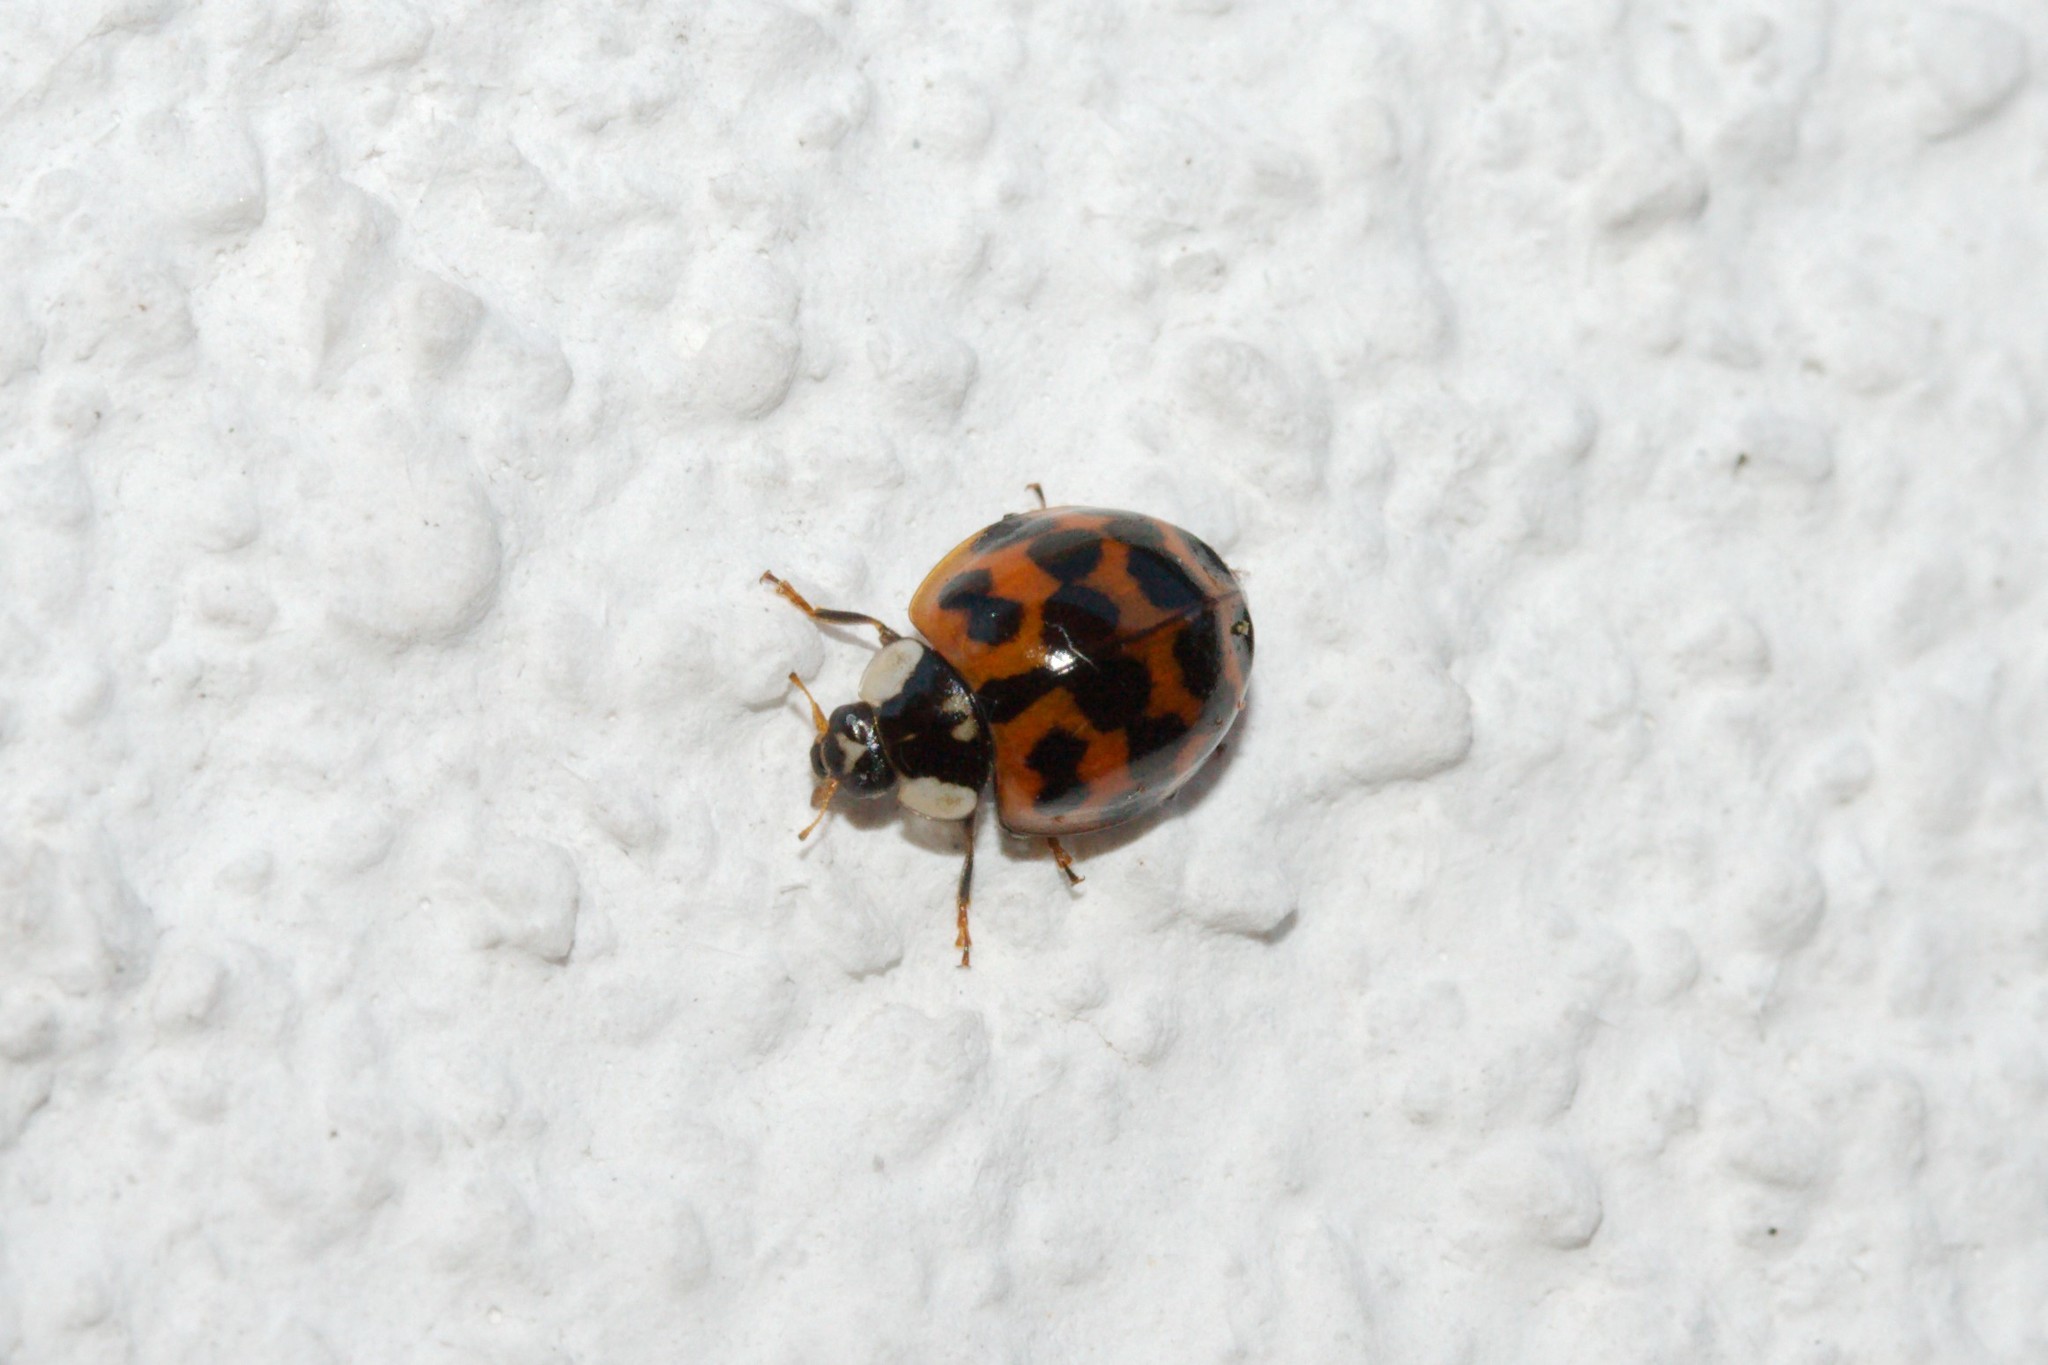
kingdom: Animalia
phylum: Arthropoda
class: Insecta
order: Coleoptera
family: Coccinellidae
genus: Harmonia
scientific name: Harmonia axyridis
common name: Harlequin ladybird
